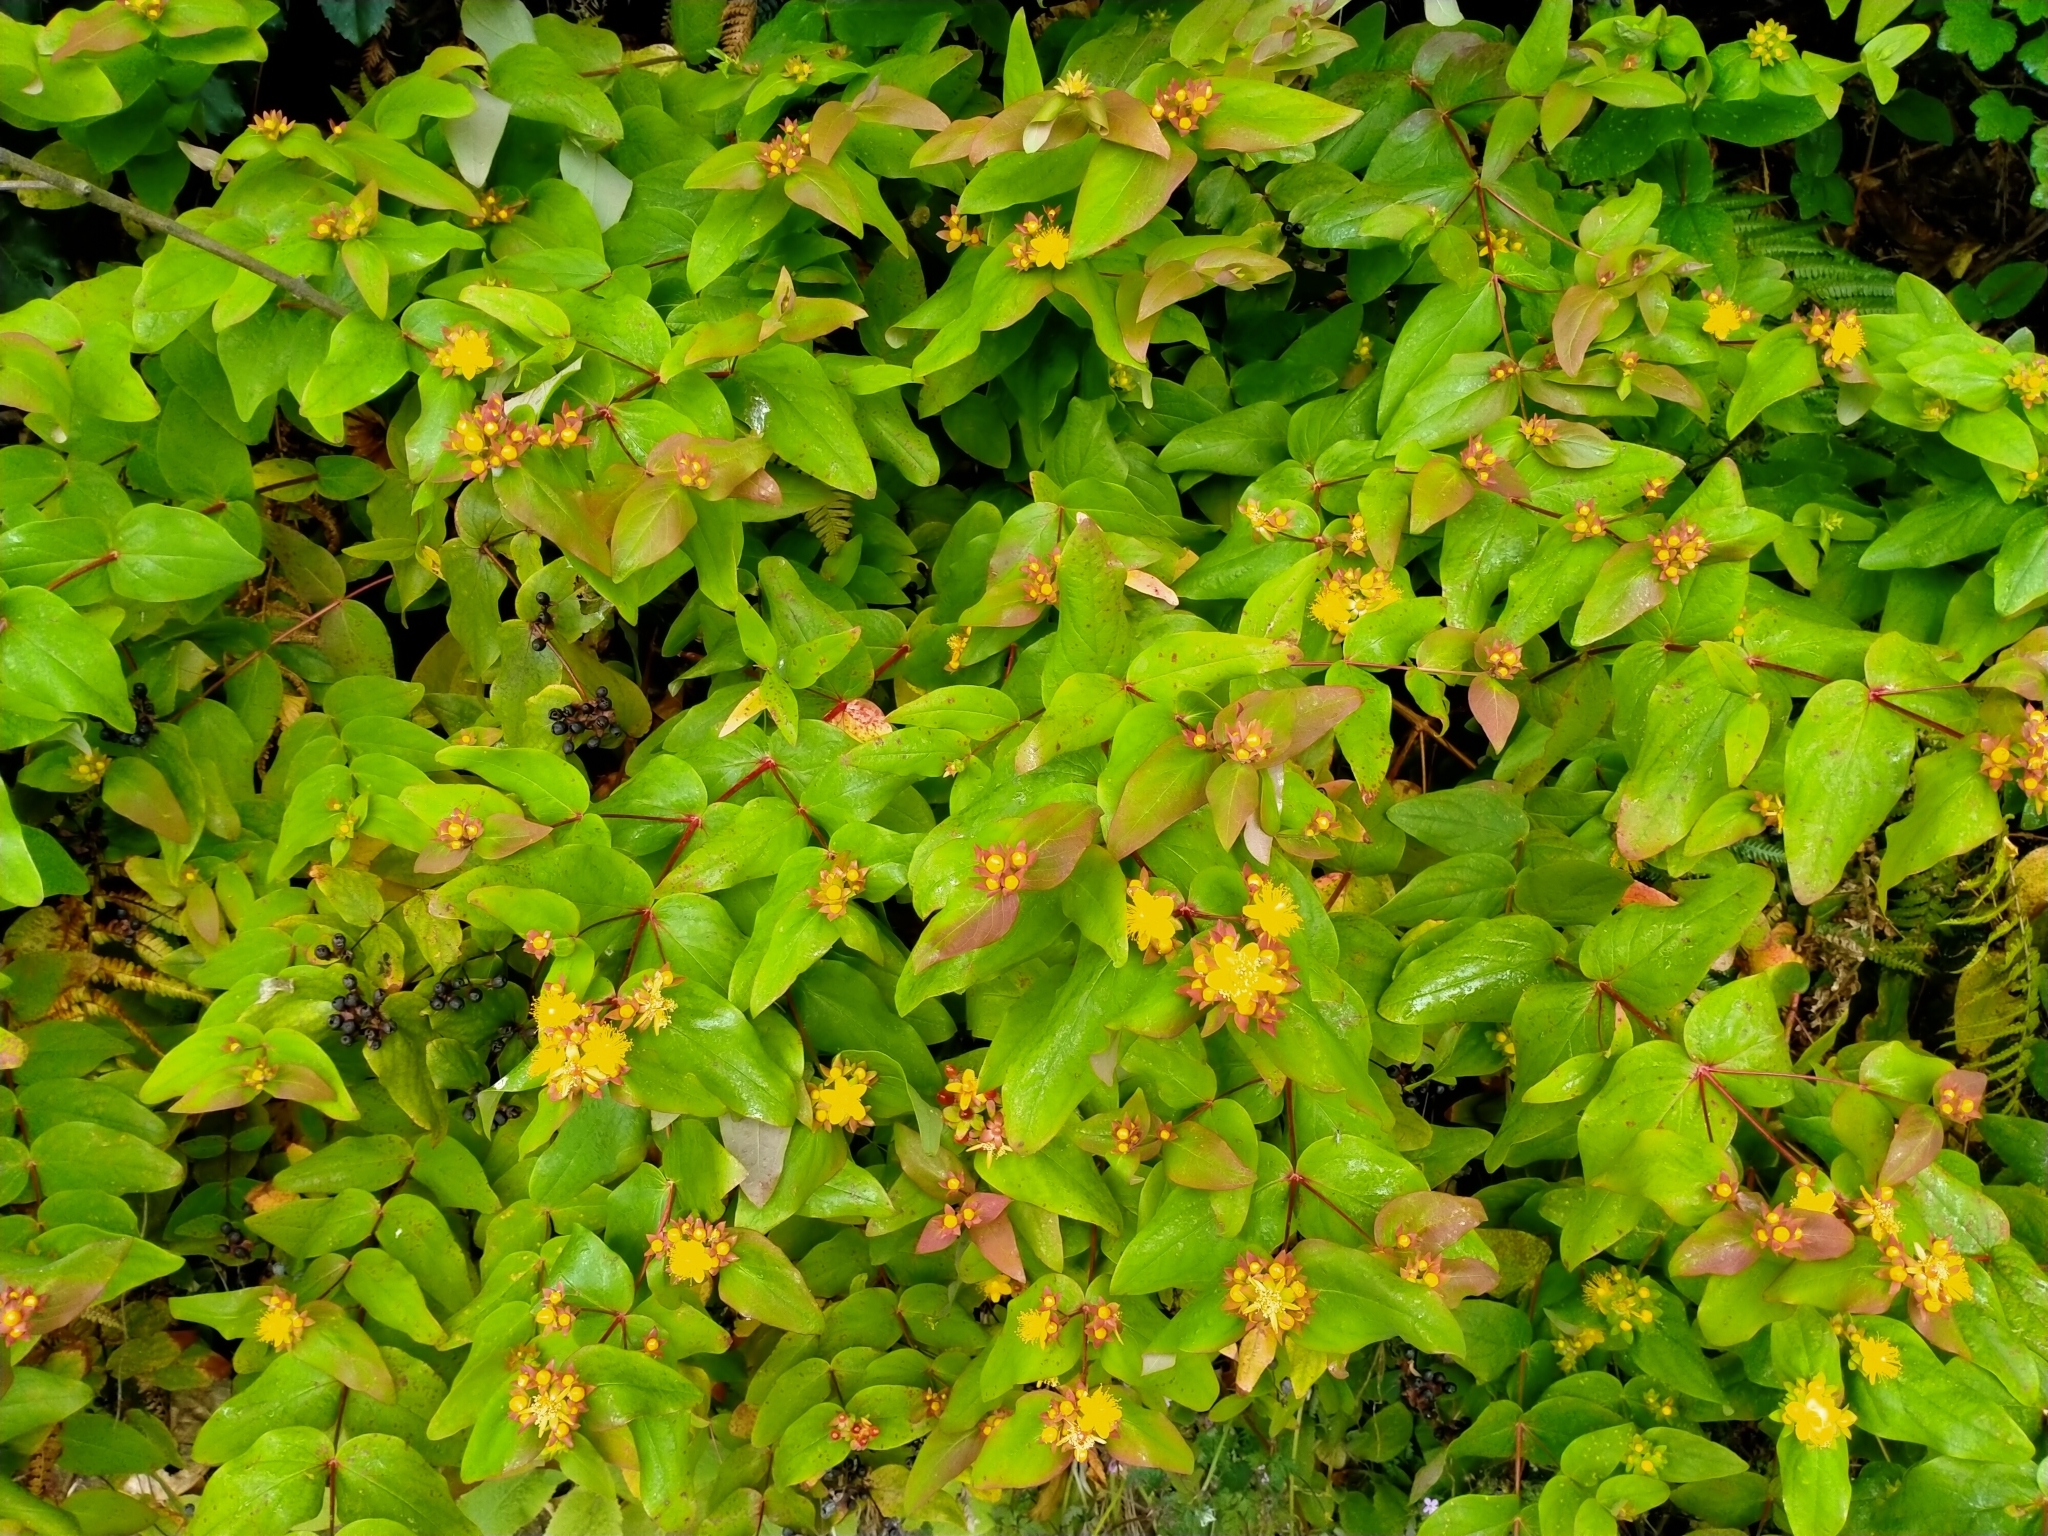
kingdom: Plantae
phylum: Tracheophyta
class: Magnoliopsida
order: Malpighiales
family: Hypericaceae
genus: Hypericum
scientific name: Hypericum androsaemum
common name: Sweet-amber
